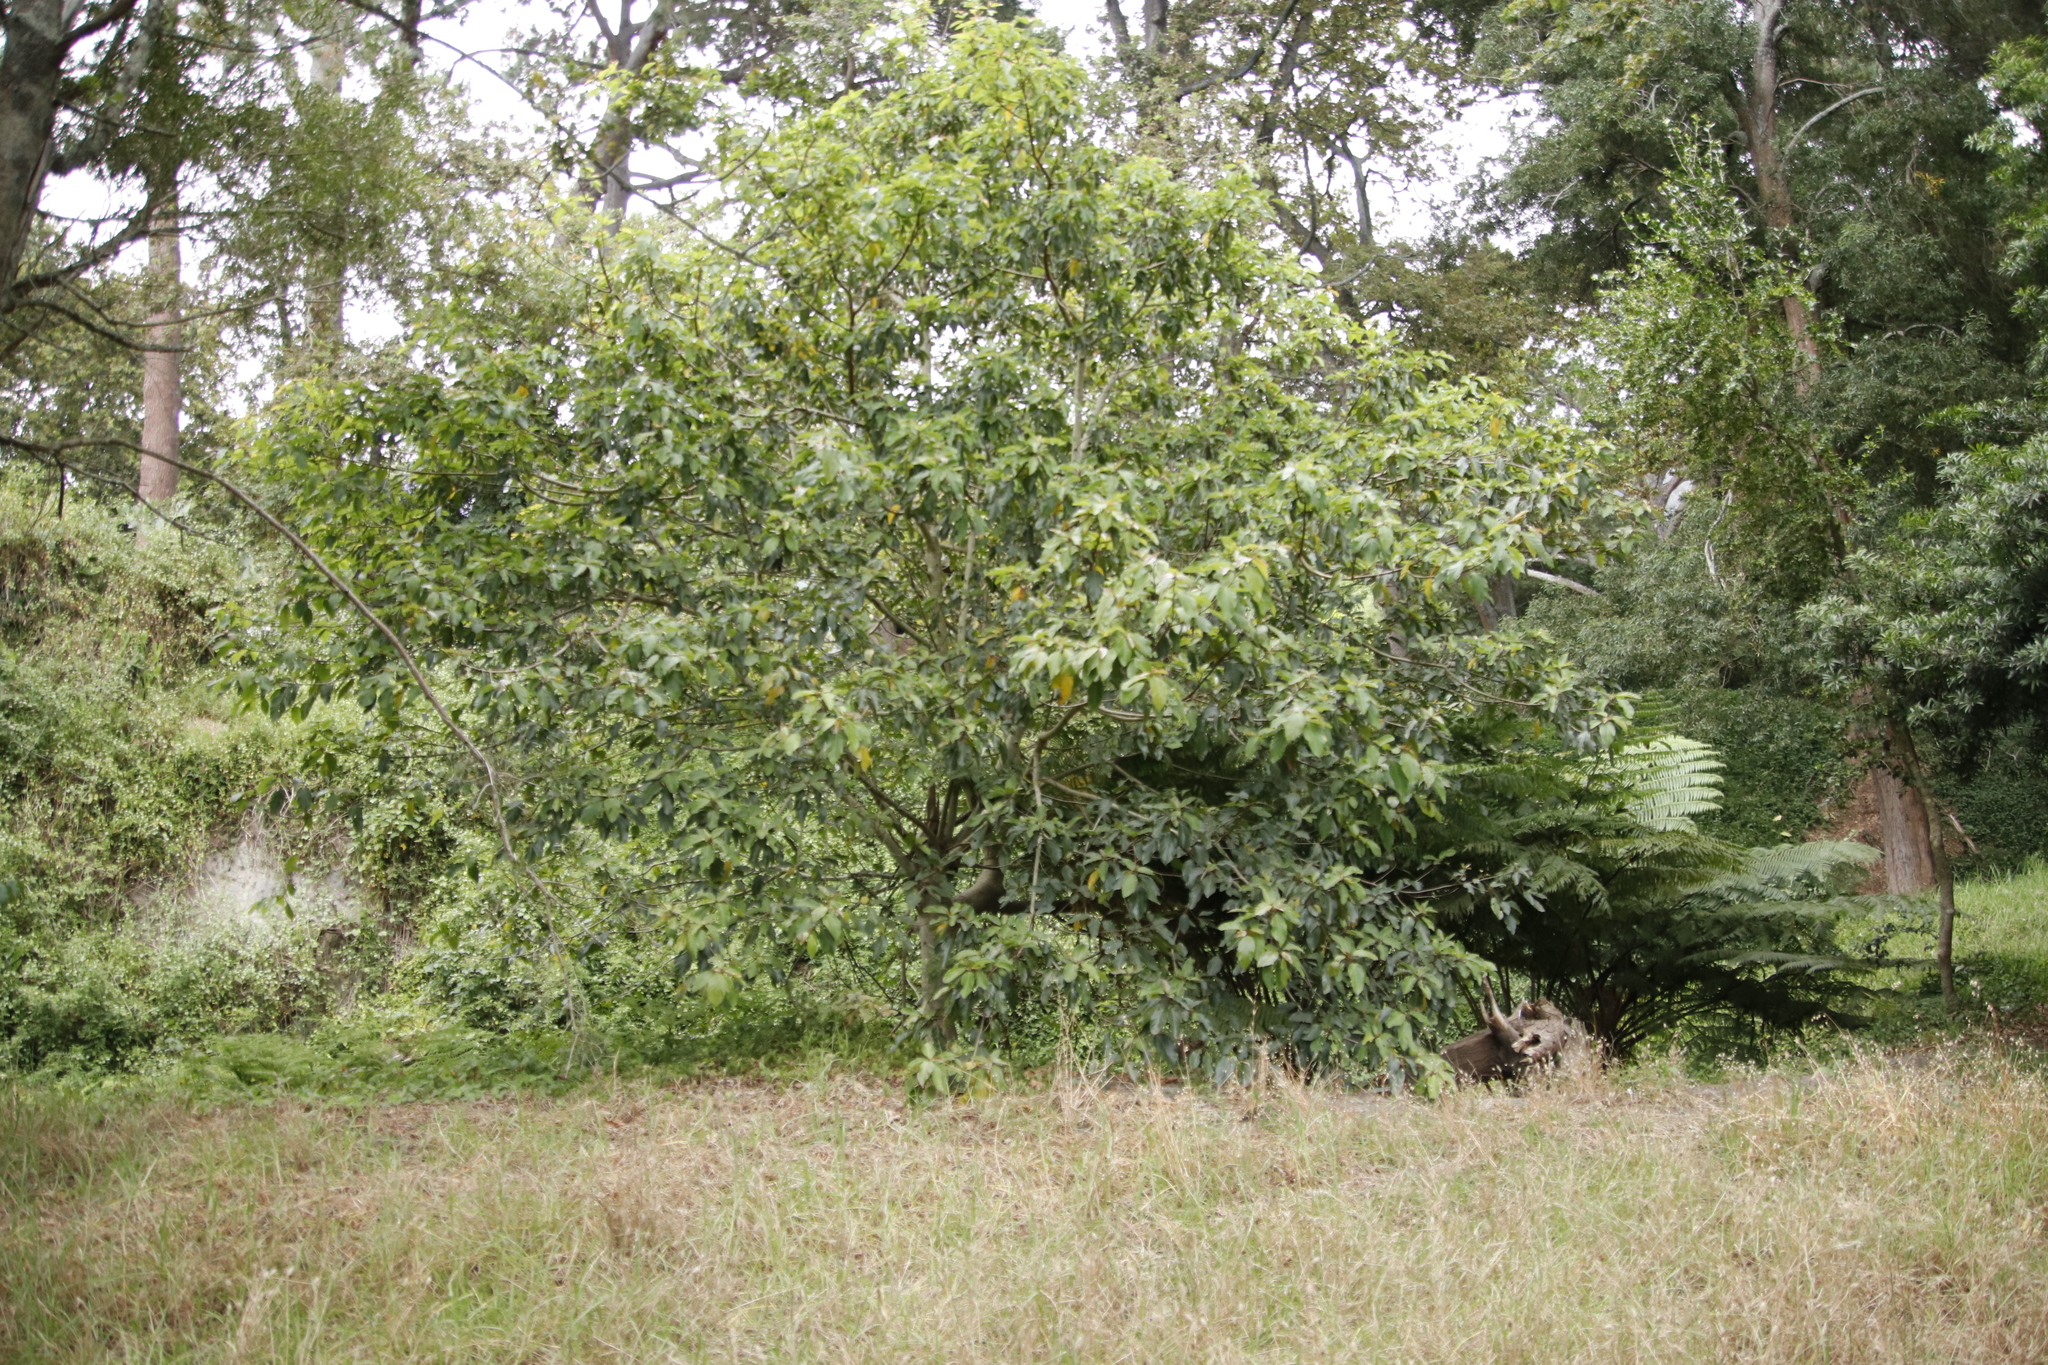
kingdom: Plantae
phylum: Tracheophyta
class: Magnoliopsida
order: Rosales
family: Moraceae
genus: Ficus
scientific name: Ficus sur
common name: Cape fig
